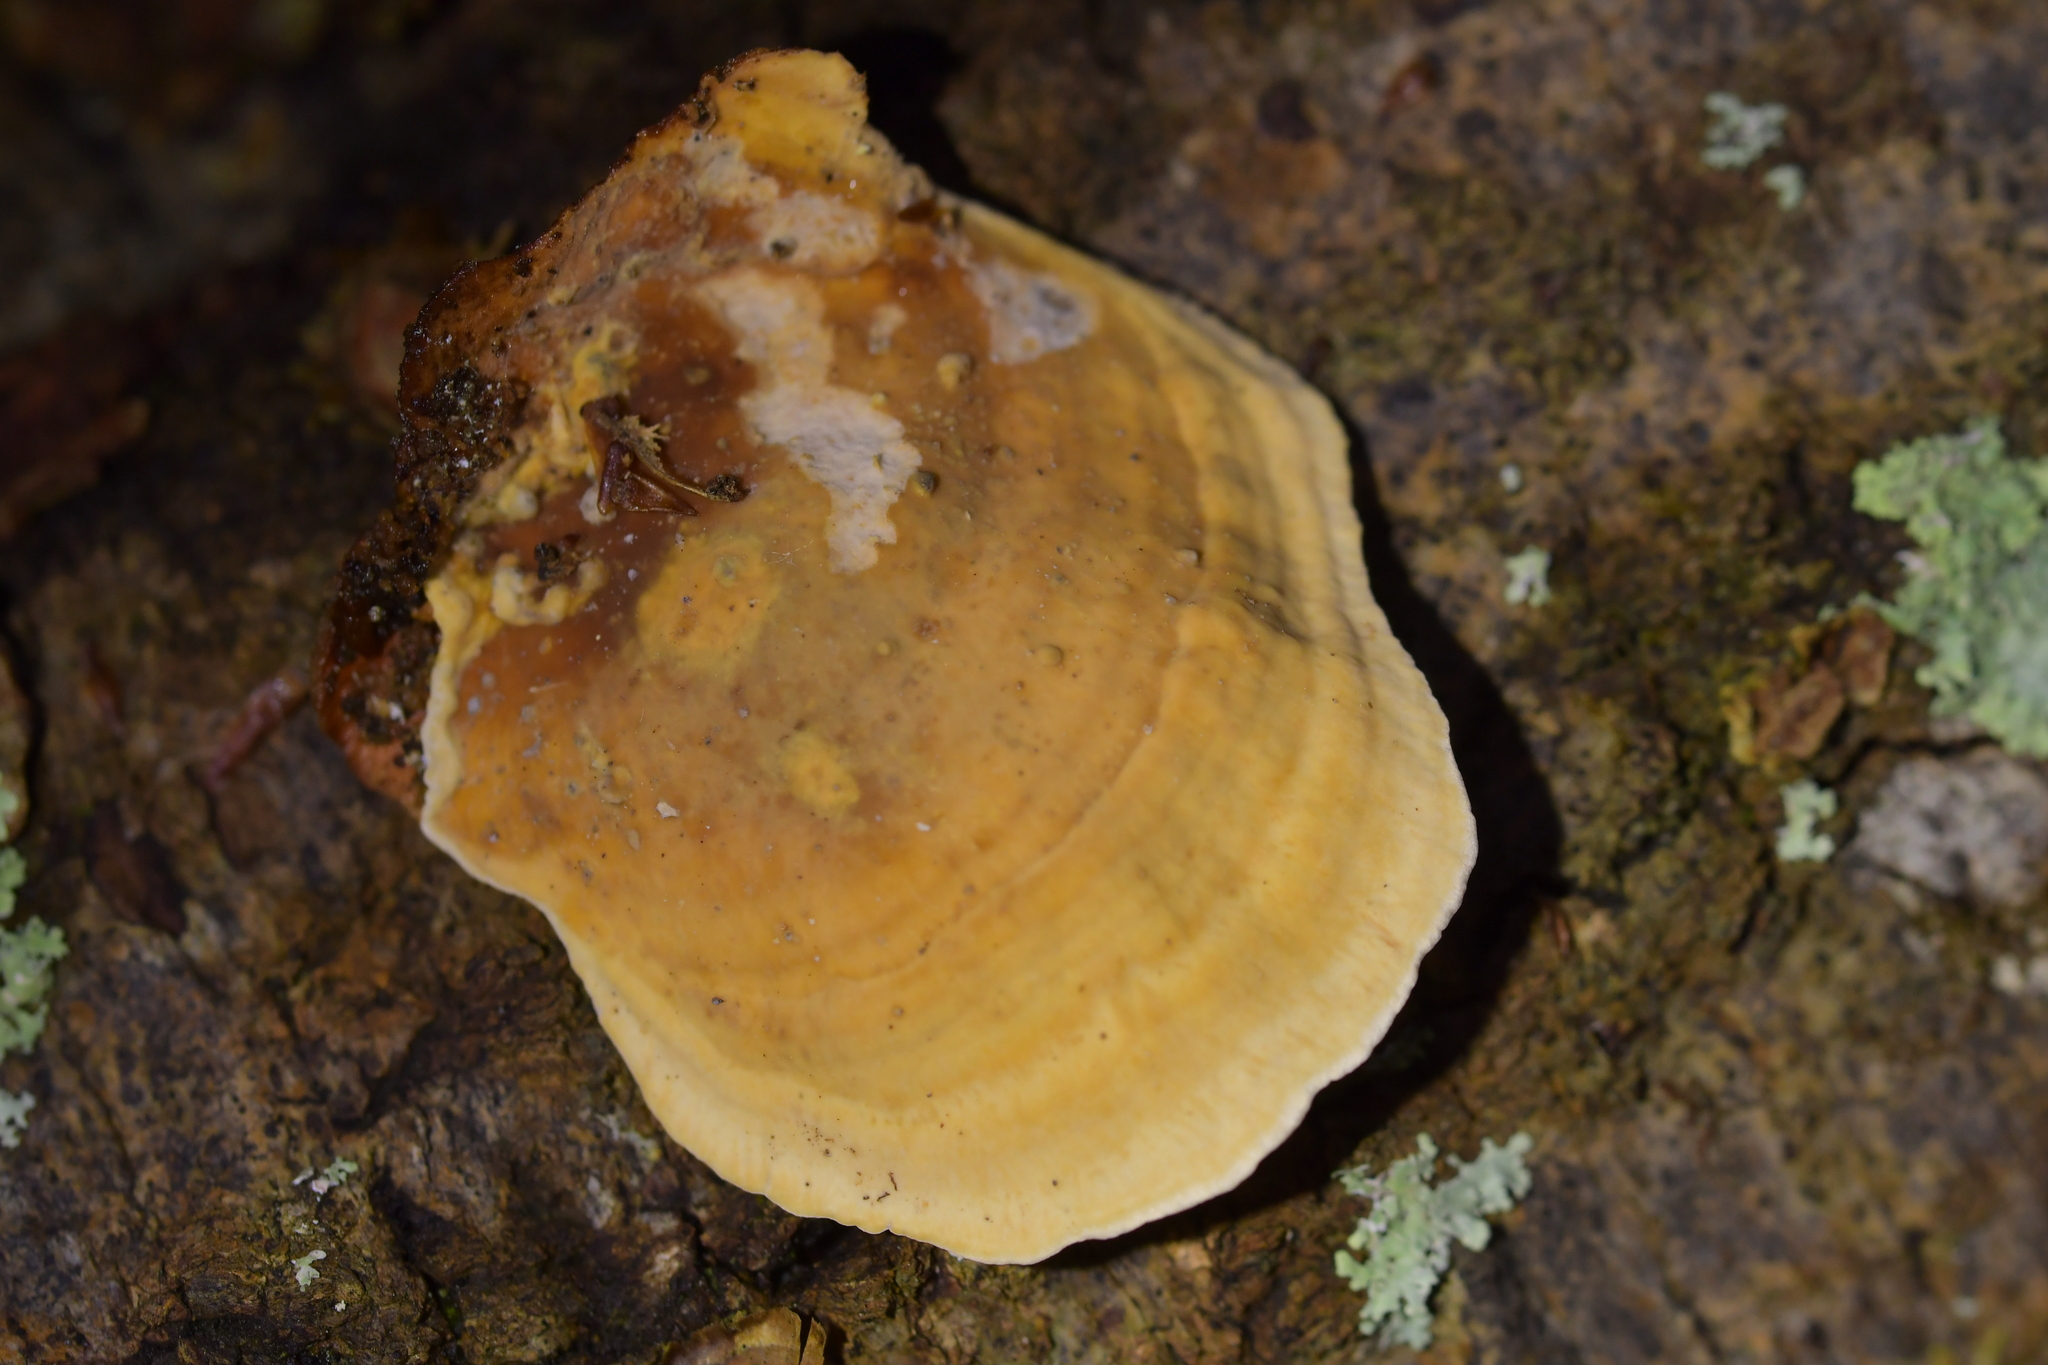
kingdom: Fungi
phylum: Basidiomycota
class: Agaricomycetes
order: Russulales
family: Stereaceae
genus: Stereum
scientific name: Stereum versicolor
